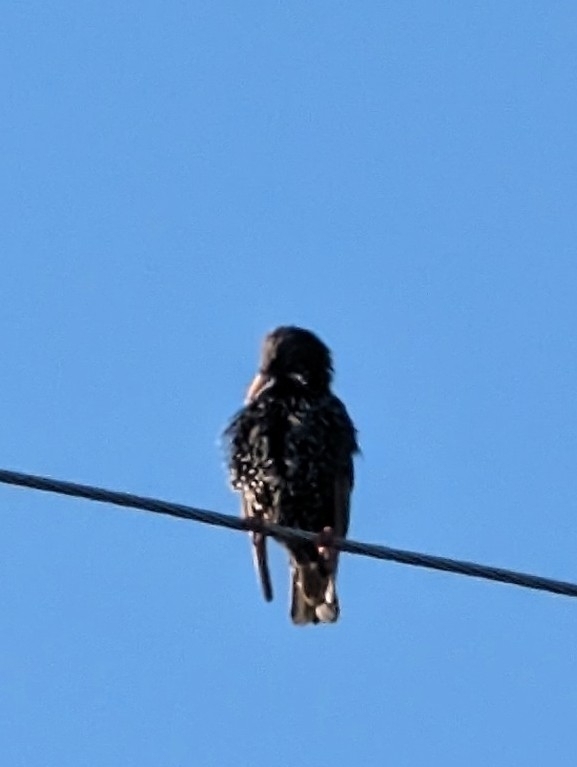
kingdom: Animalia
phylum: Chordata
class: Aves
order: Passeriformes
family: Sturnidae
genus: Sturnus
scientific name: Sturnus vulgaris
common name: Common starling
